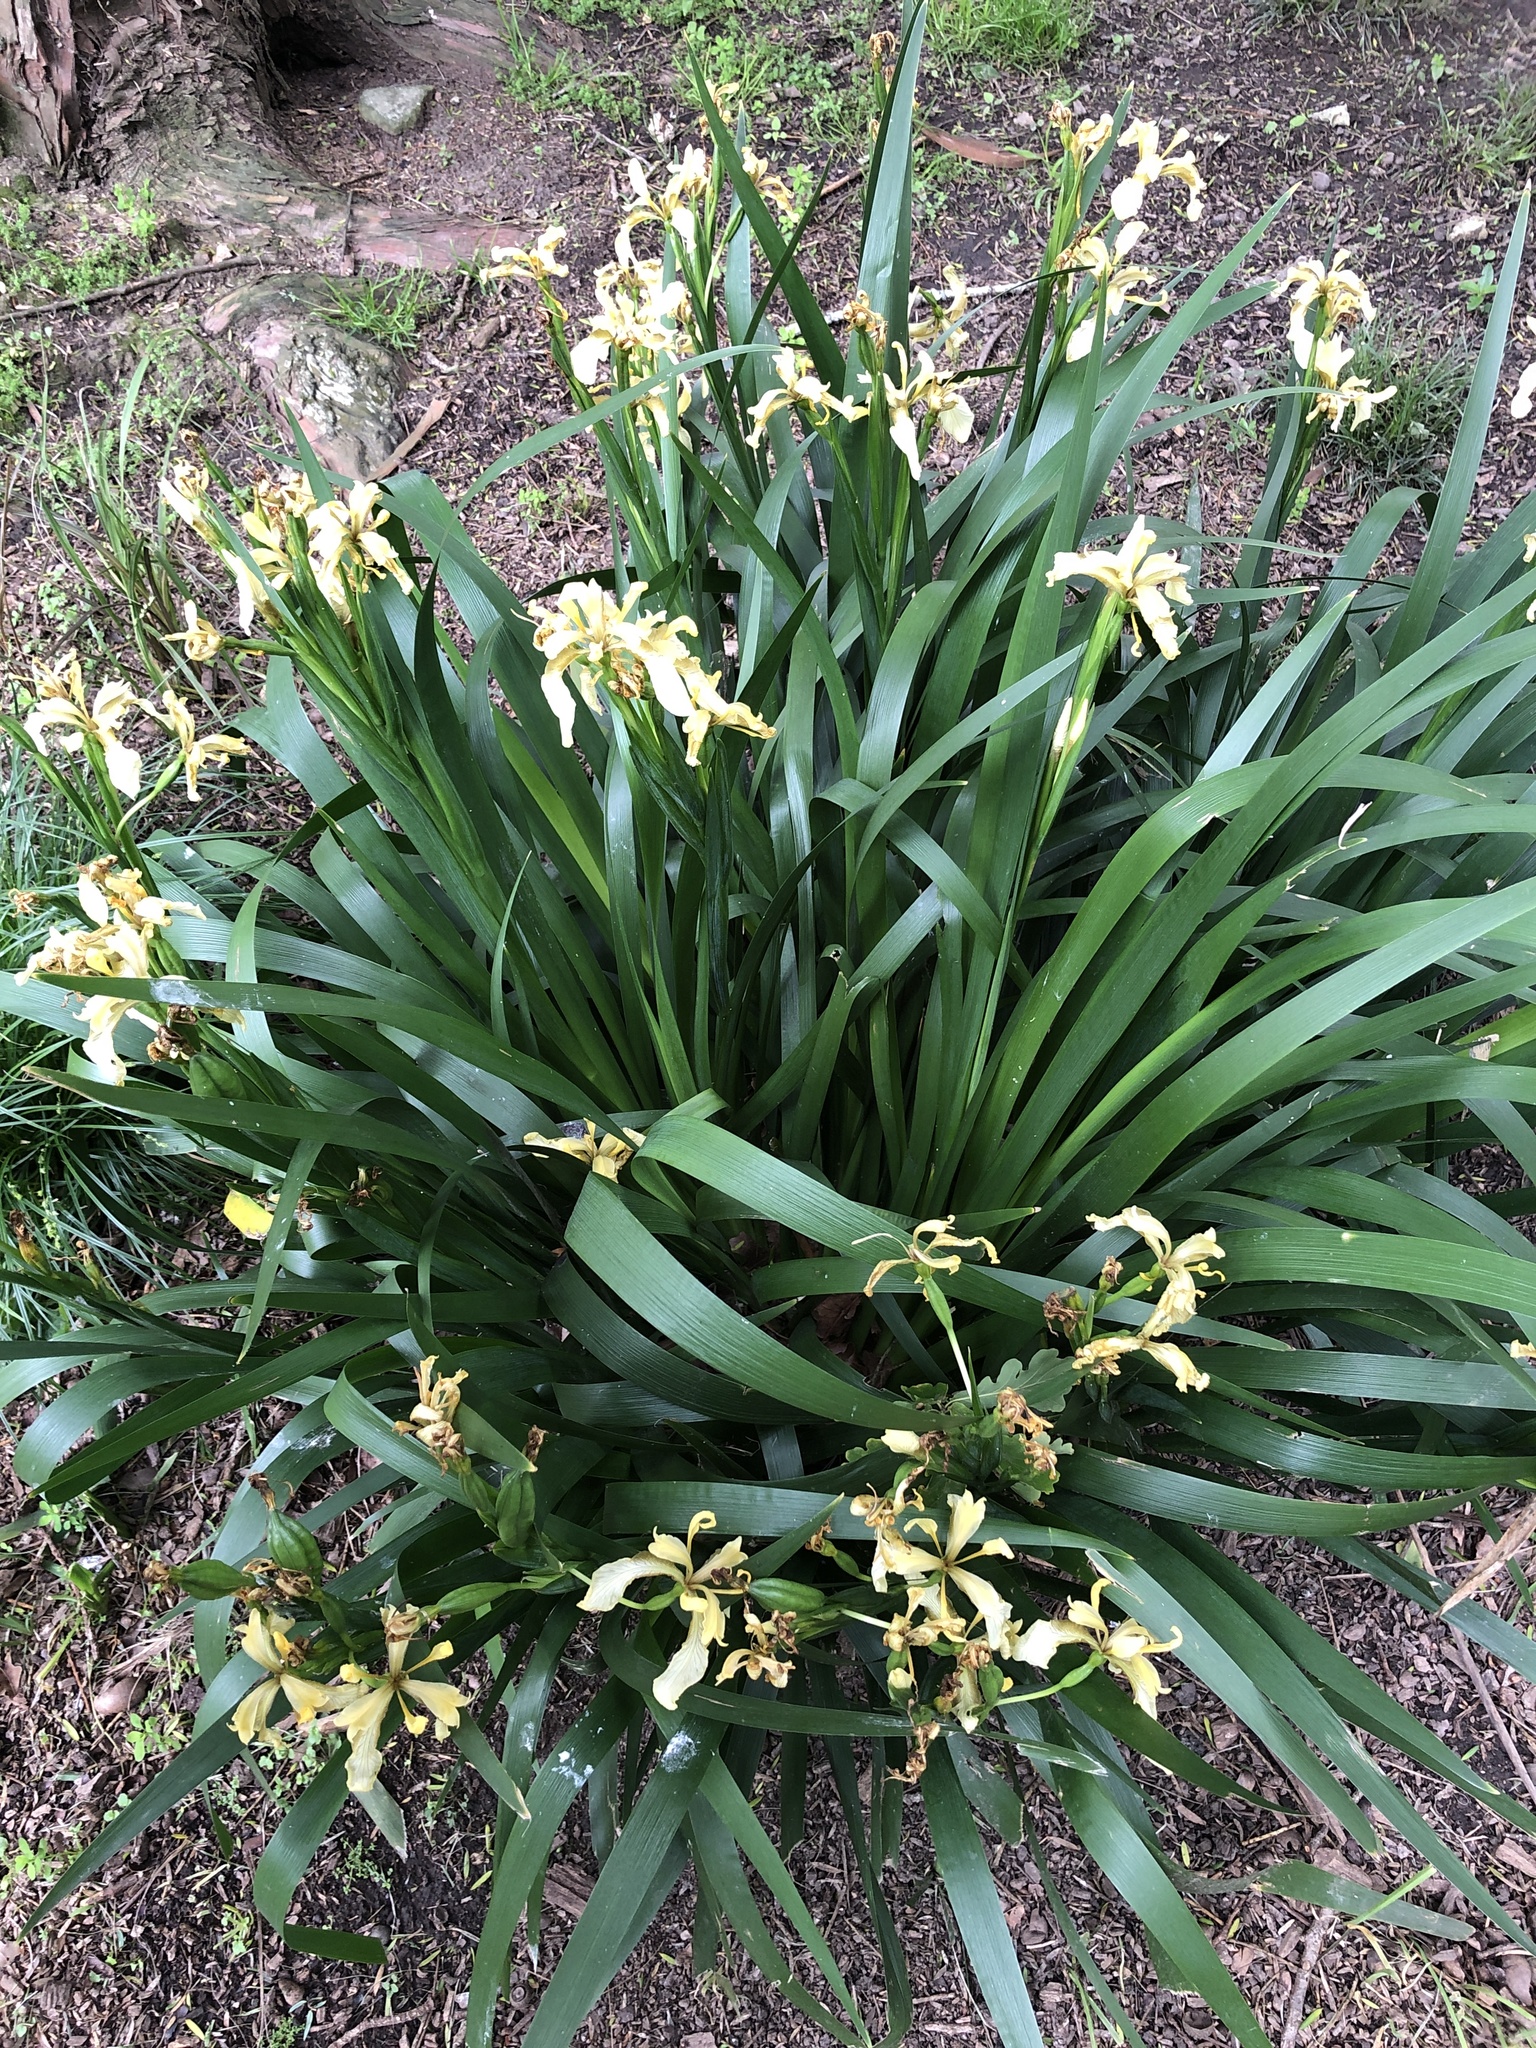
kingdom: Plantae
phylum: Tracheophyta
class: Liliopsida
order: Asparagales
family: Iridaceae
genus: Iris
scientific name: Iris foetidissima
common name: Stinking iris
